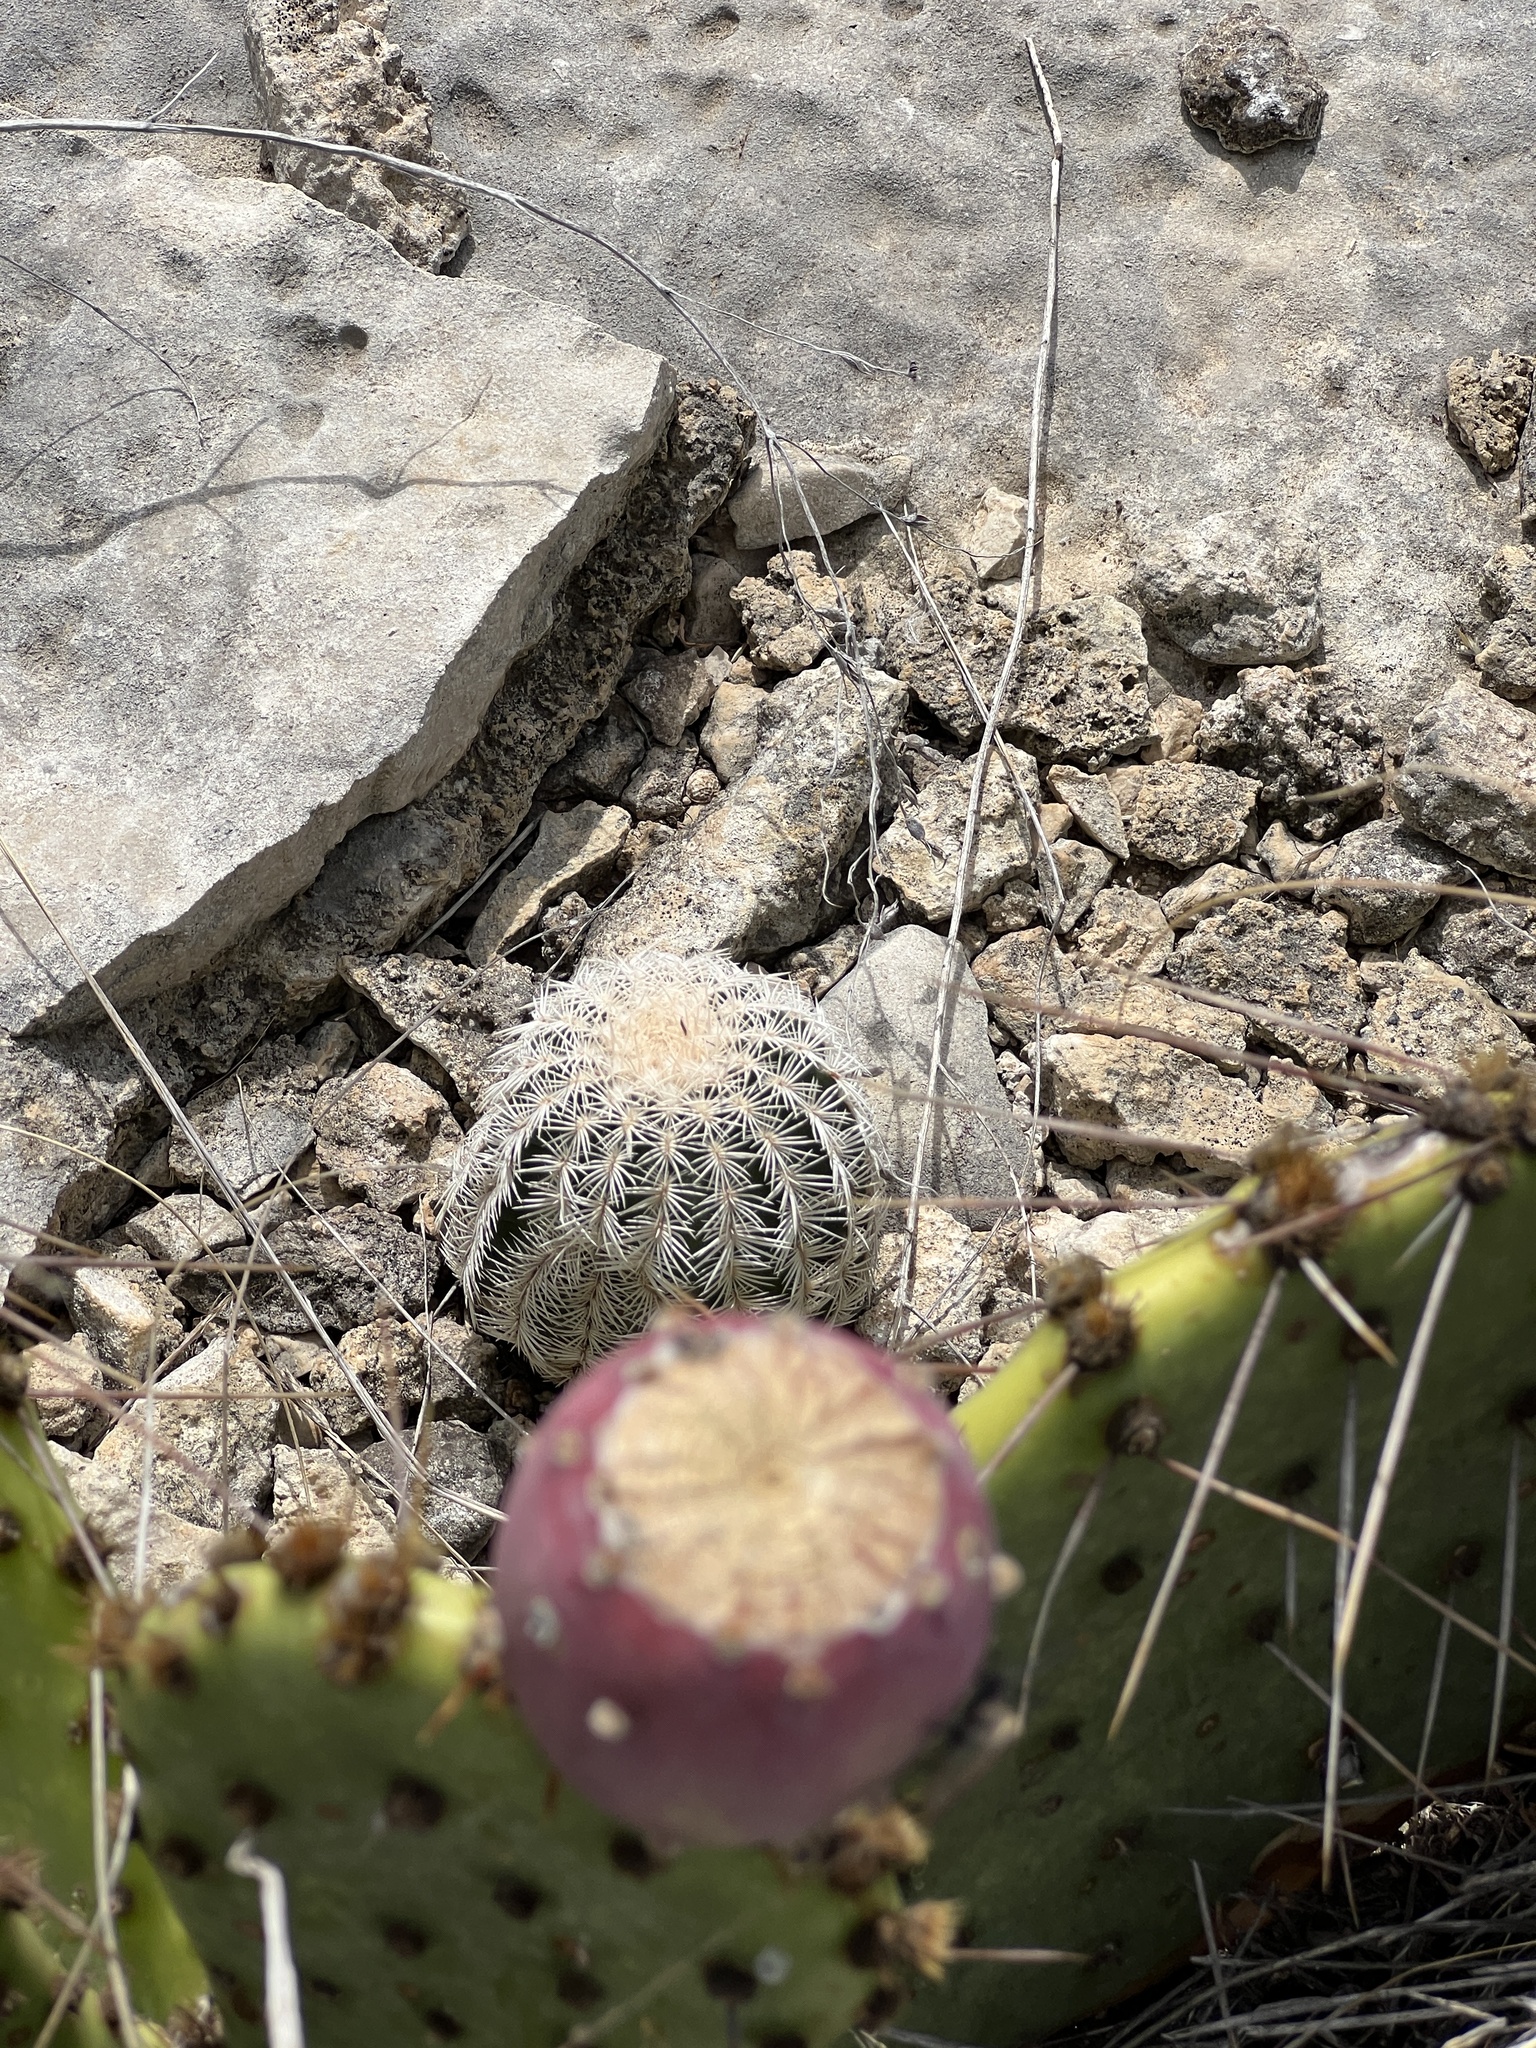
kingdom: Plantae
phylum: Tracheophyta
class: Magnoliopsida
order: Caryophyllales
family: Cactaceae
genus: Echinocereus
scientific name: Echinocereus reichenbachii
